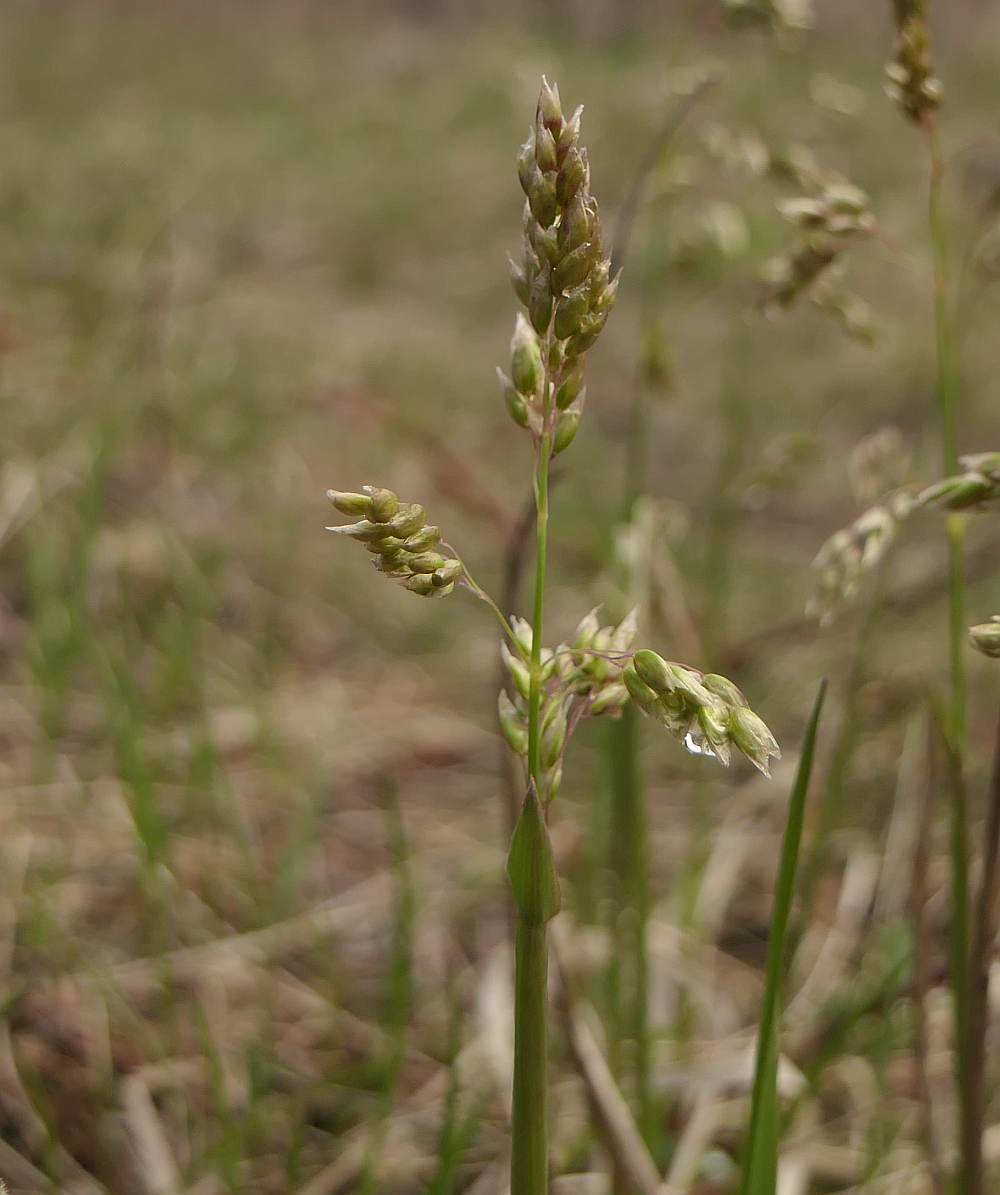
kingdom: Plantae
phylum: Tracheophyta
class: Liliopsida
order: Poales
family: Poaceae
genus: Anthoxanthum
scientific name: Anthoxanthum nitens
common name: Holy grass
